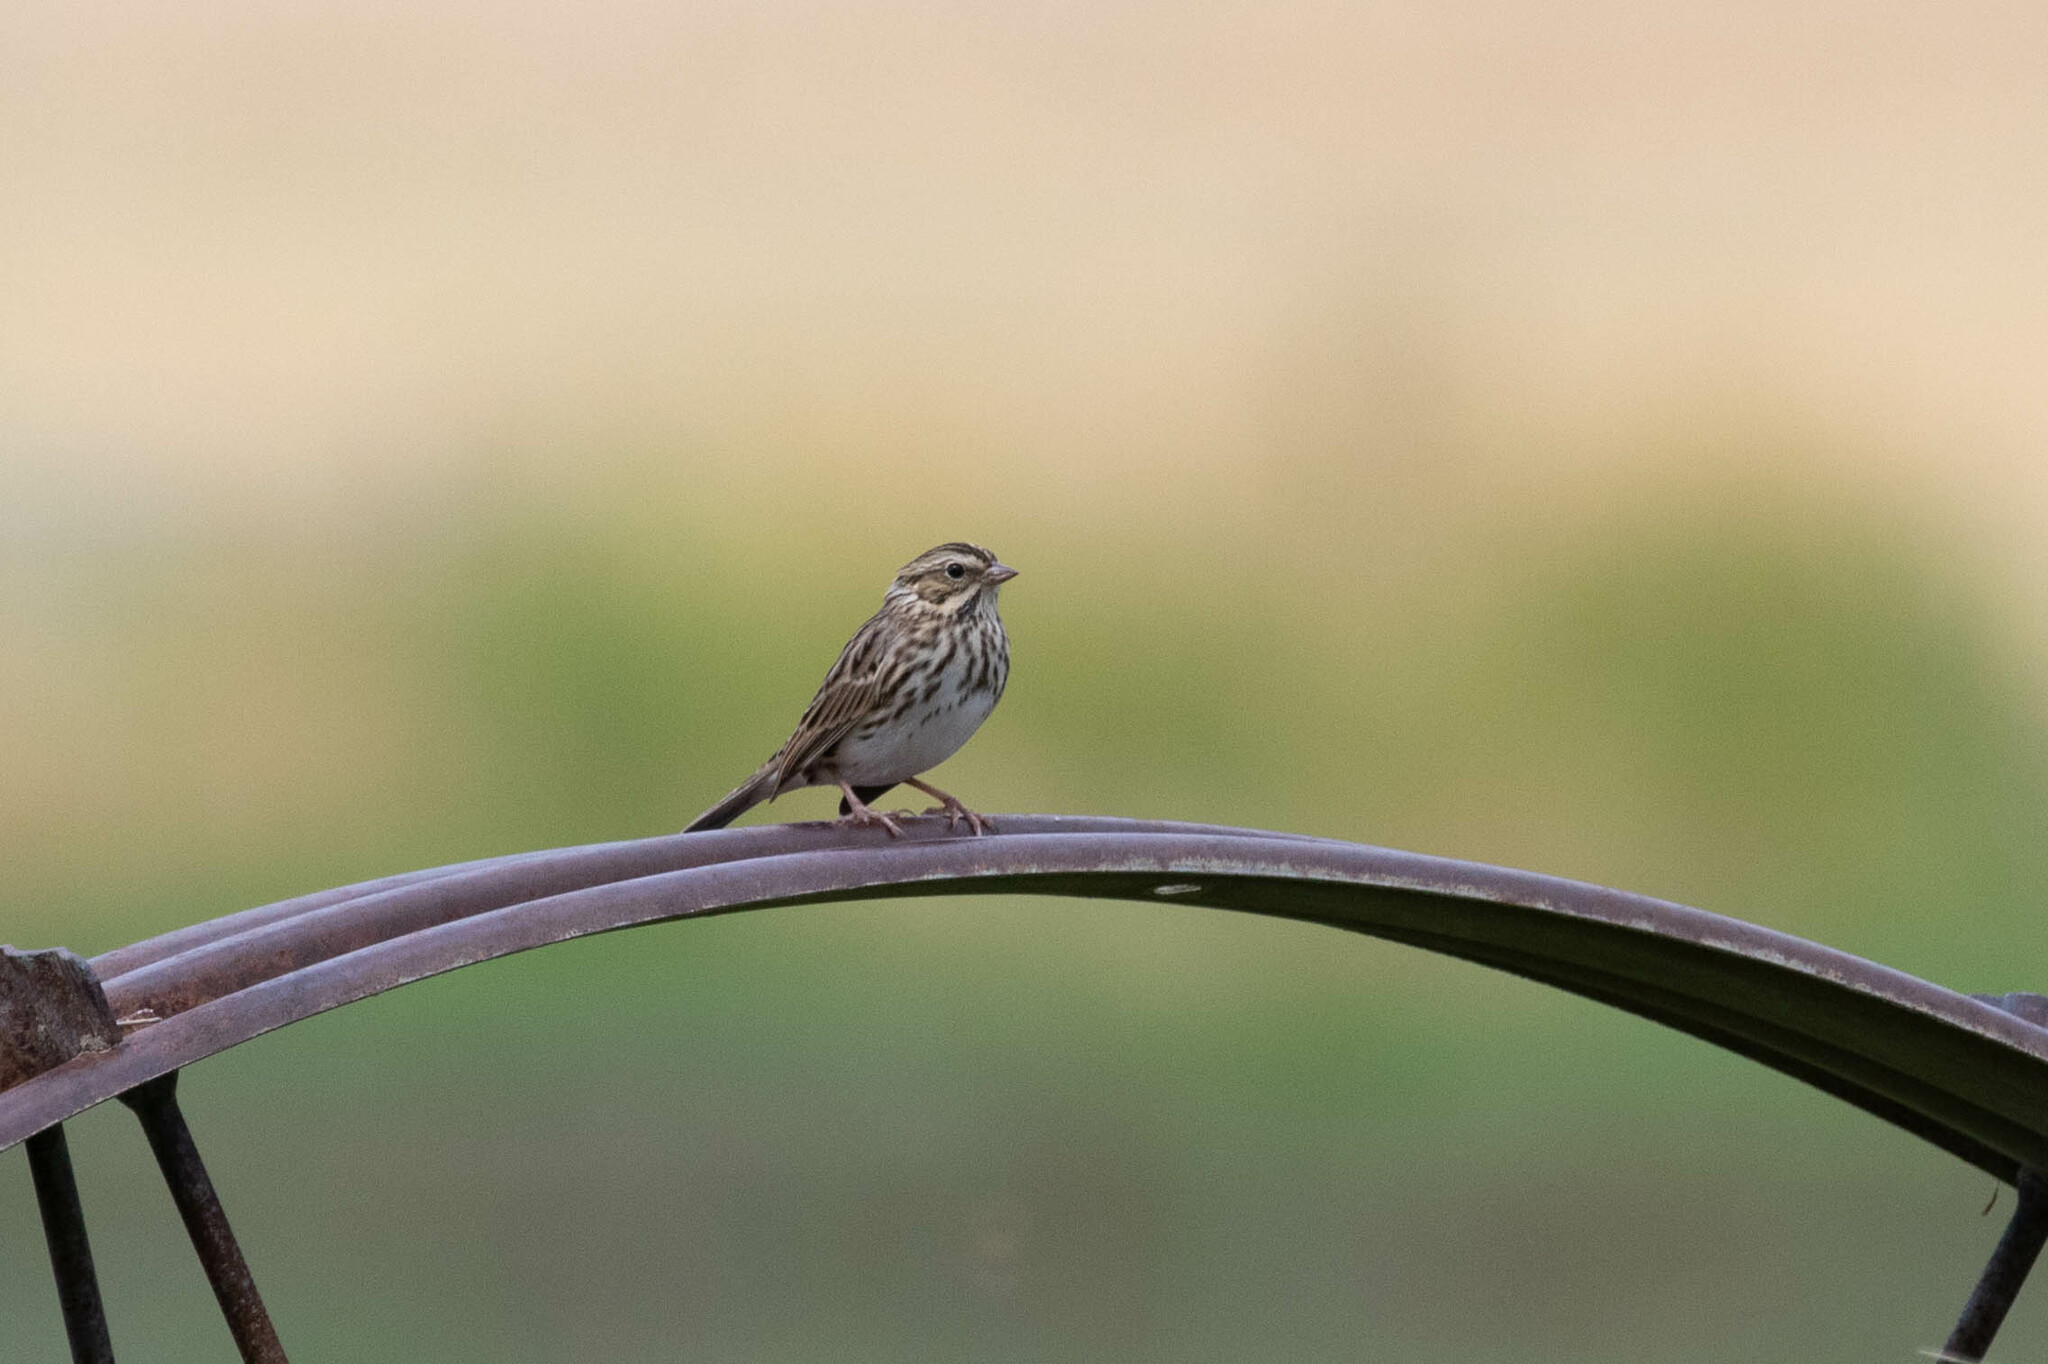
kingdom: Animalia
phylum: Chordata
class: Aves
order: Passeriformes
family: Passerellidae
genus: Passerculus
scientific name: Passerculus sandwichensis
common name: Savannah sparrow
